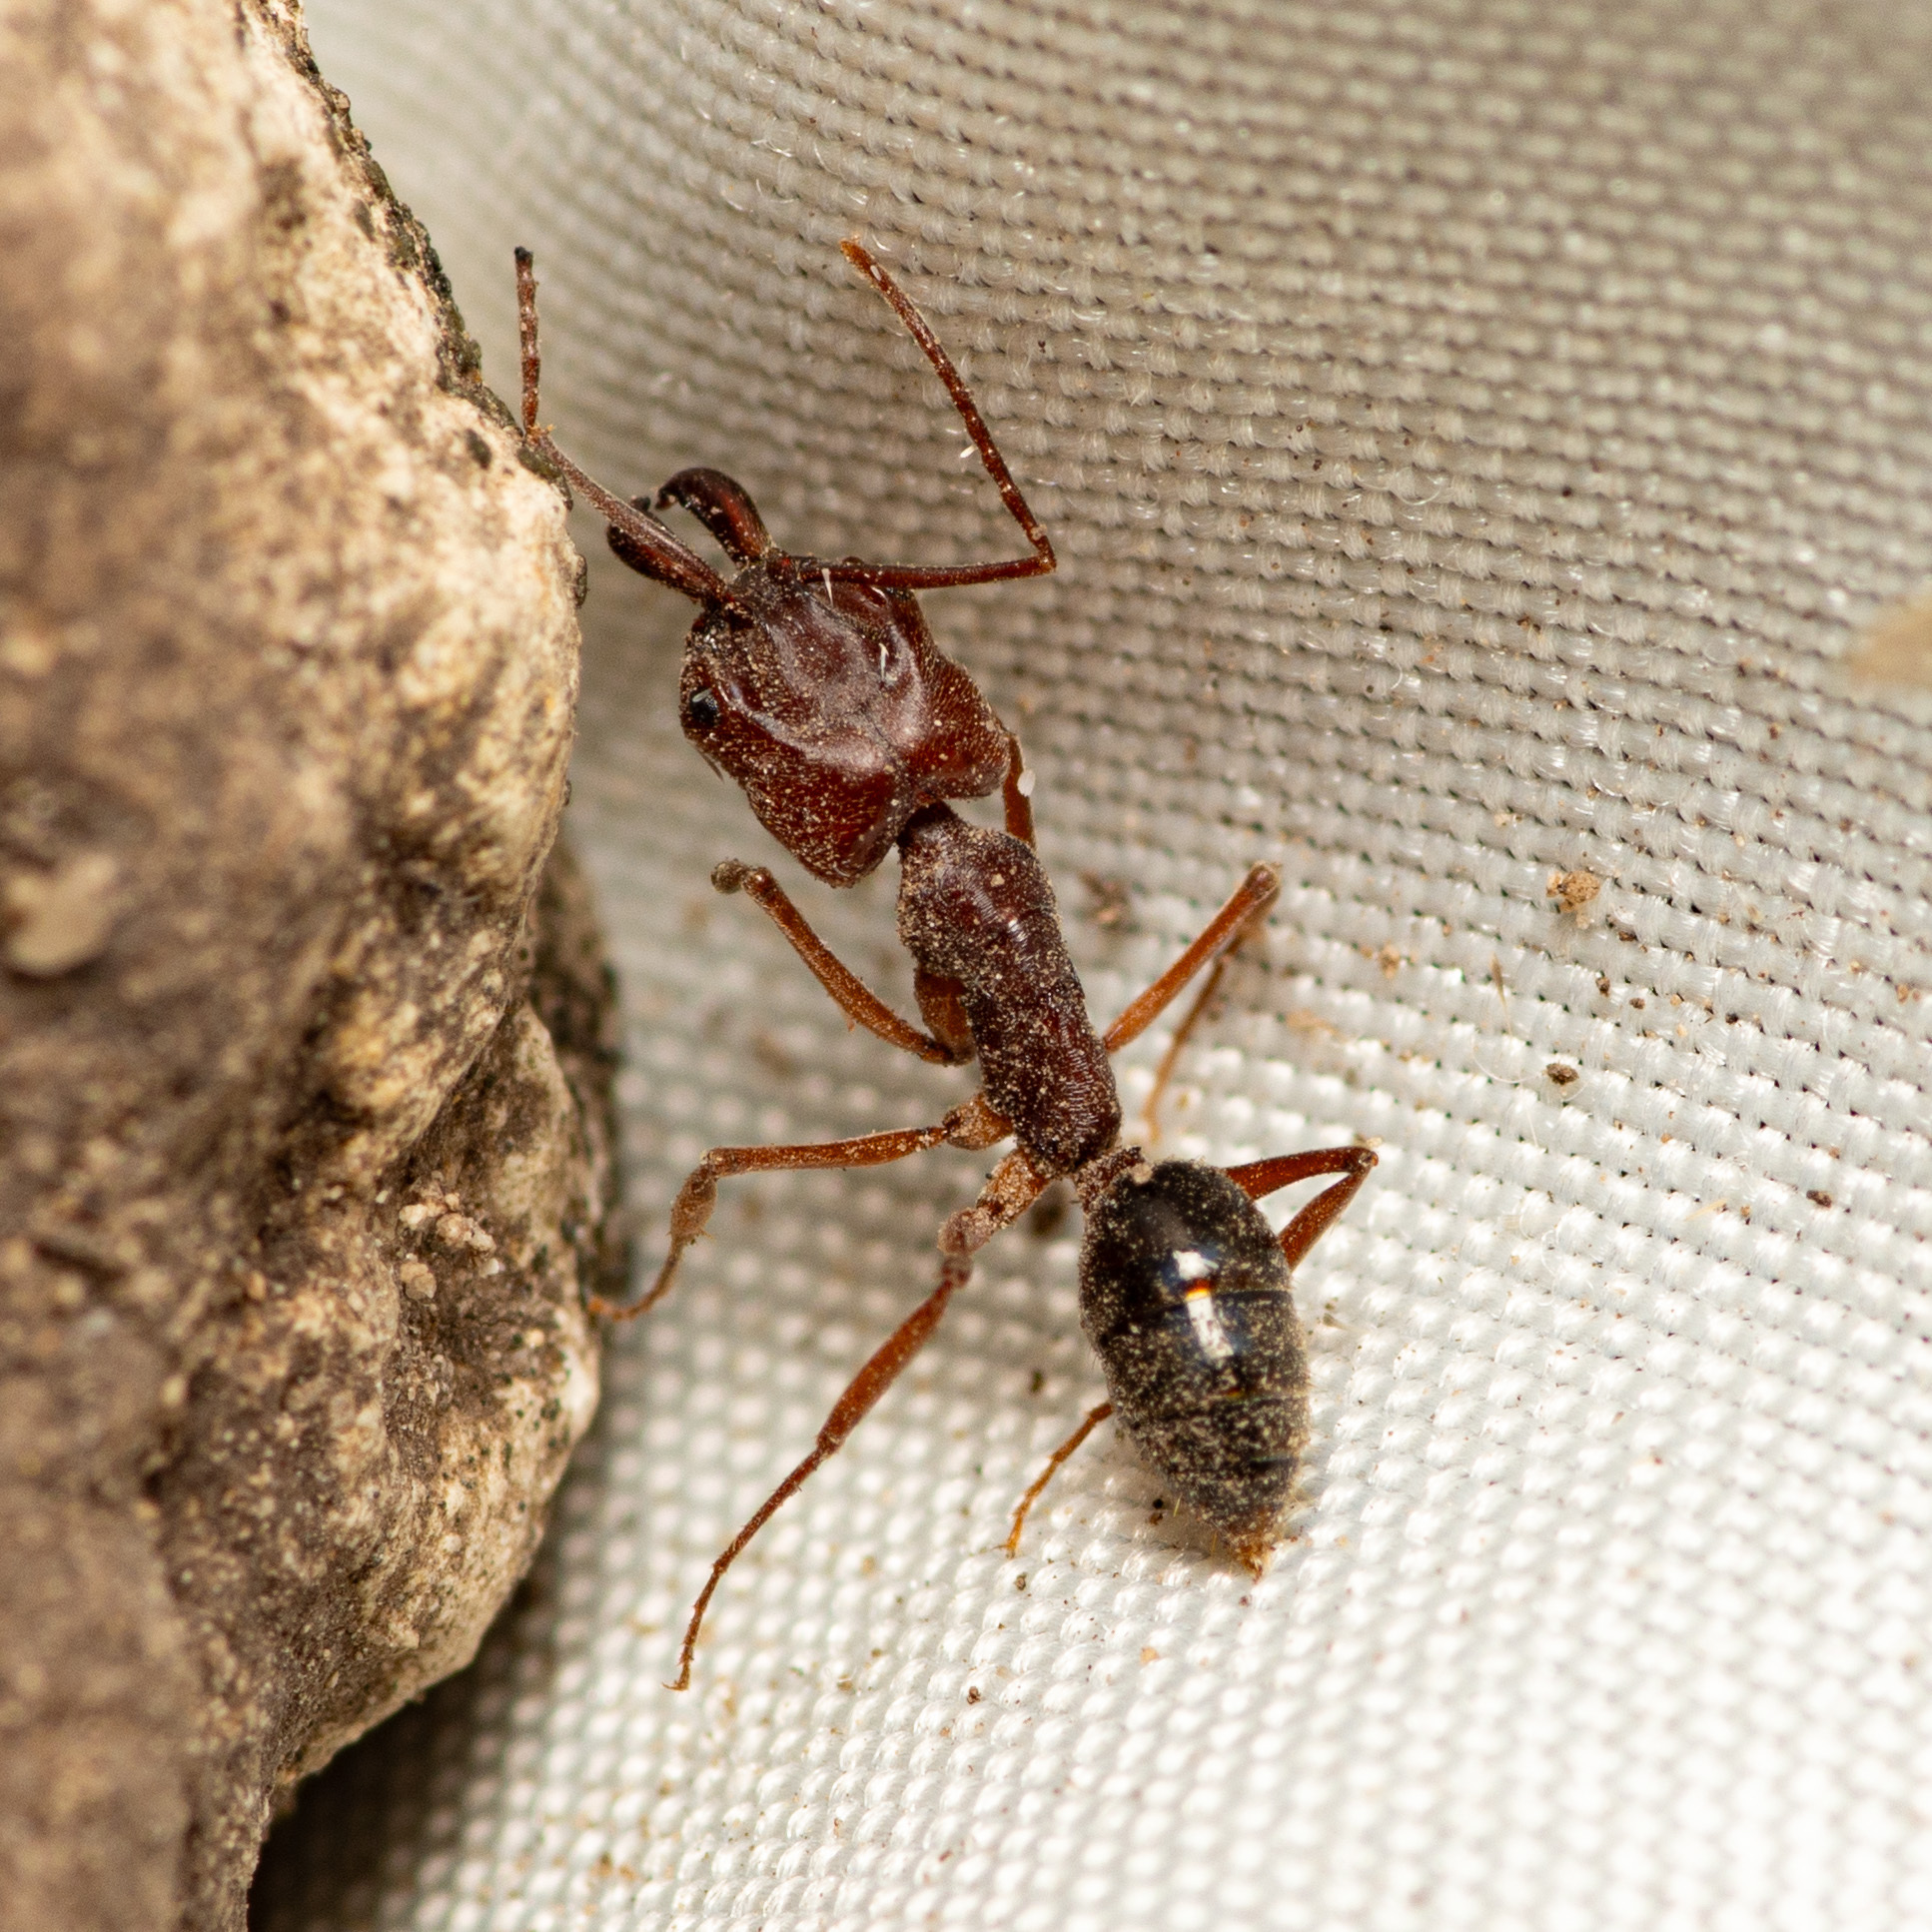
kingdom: Animalia
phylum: Arthropoda
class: Insecta
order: Hymenoptera
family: Formicidae
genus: Odontomachus
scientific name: Odontomachus clarus
